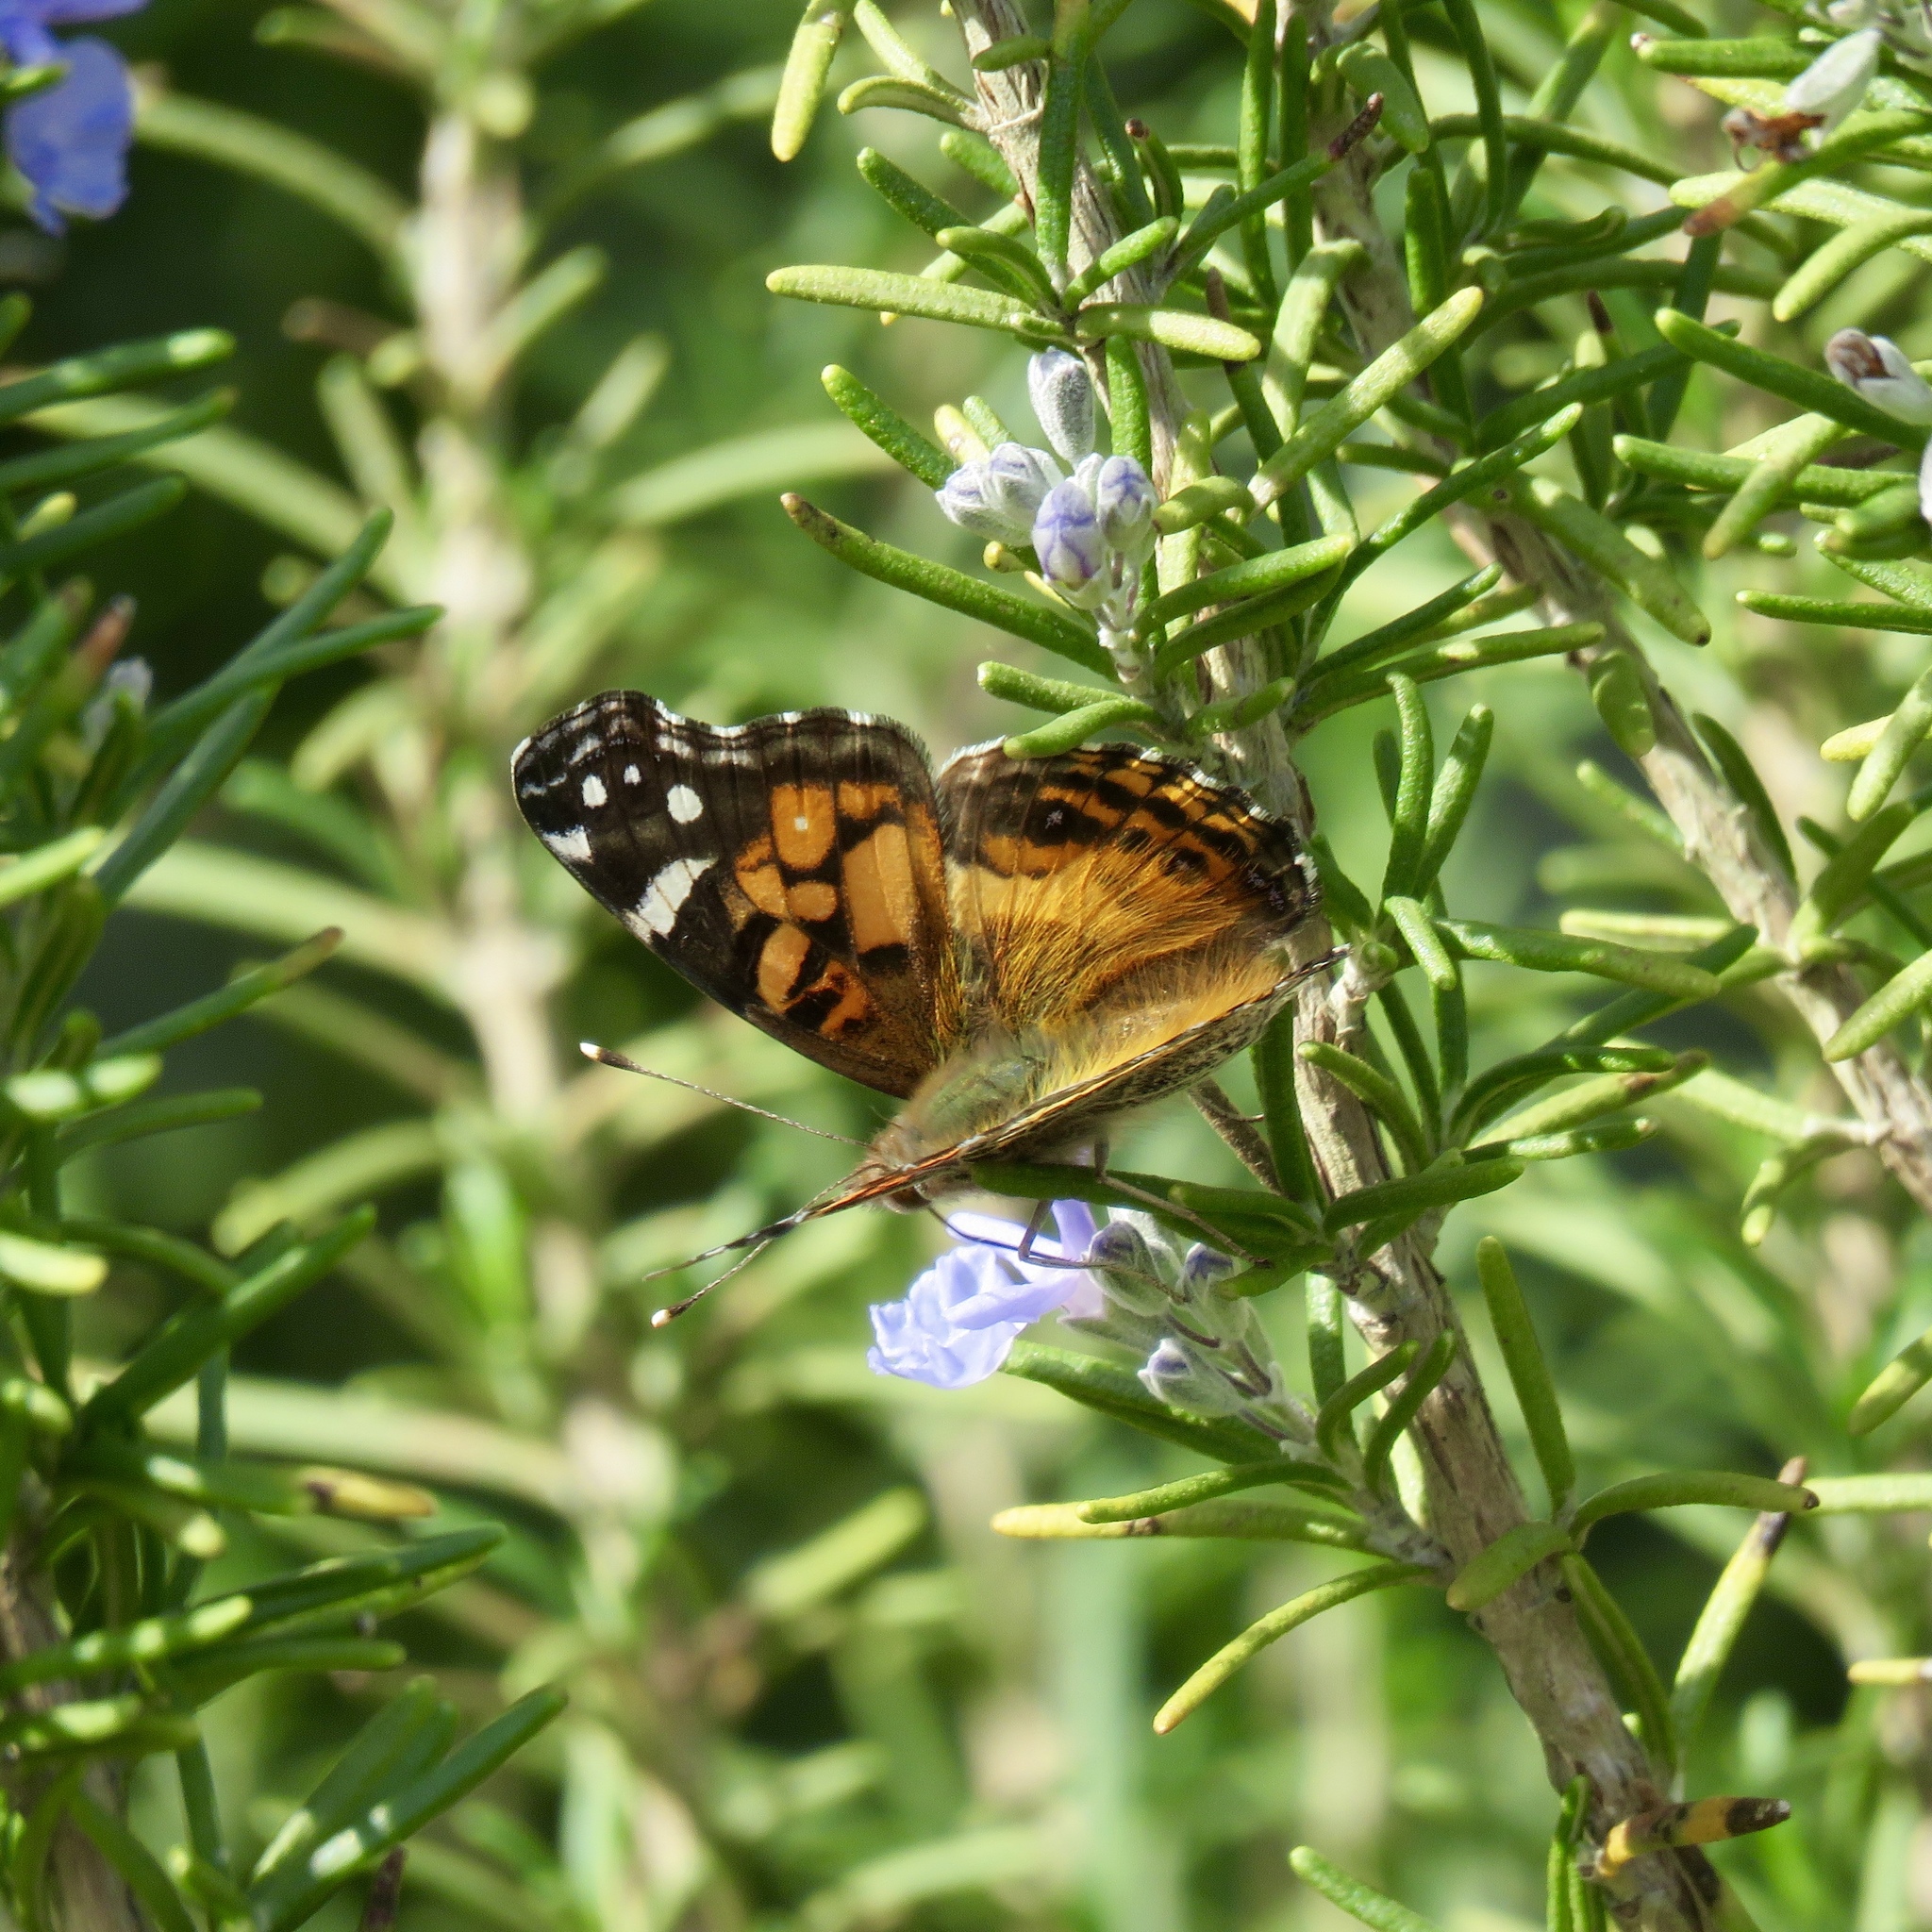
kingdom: Animalia
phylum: Arthropoda
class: Insecta
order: Lepidoptera
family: Nymphalidae
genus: Vanessa
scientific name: Vanessa virginiensis
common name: American lady
